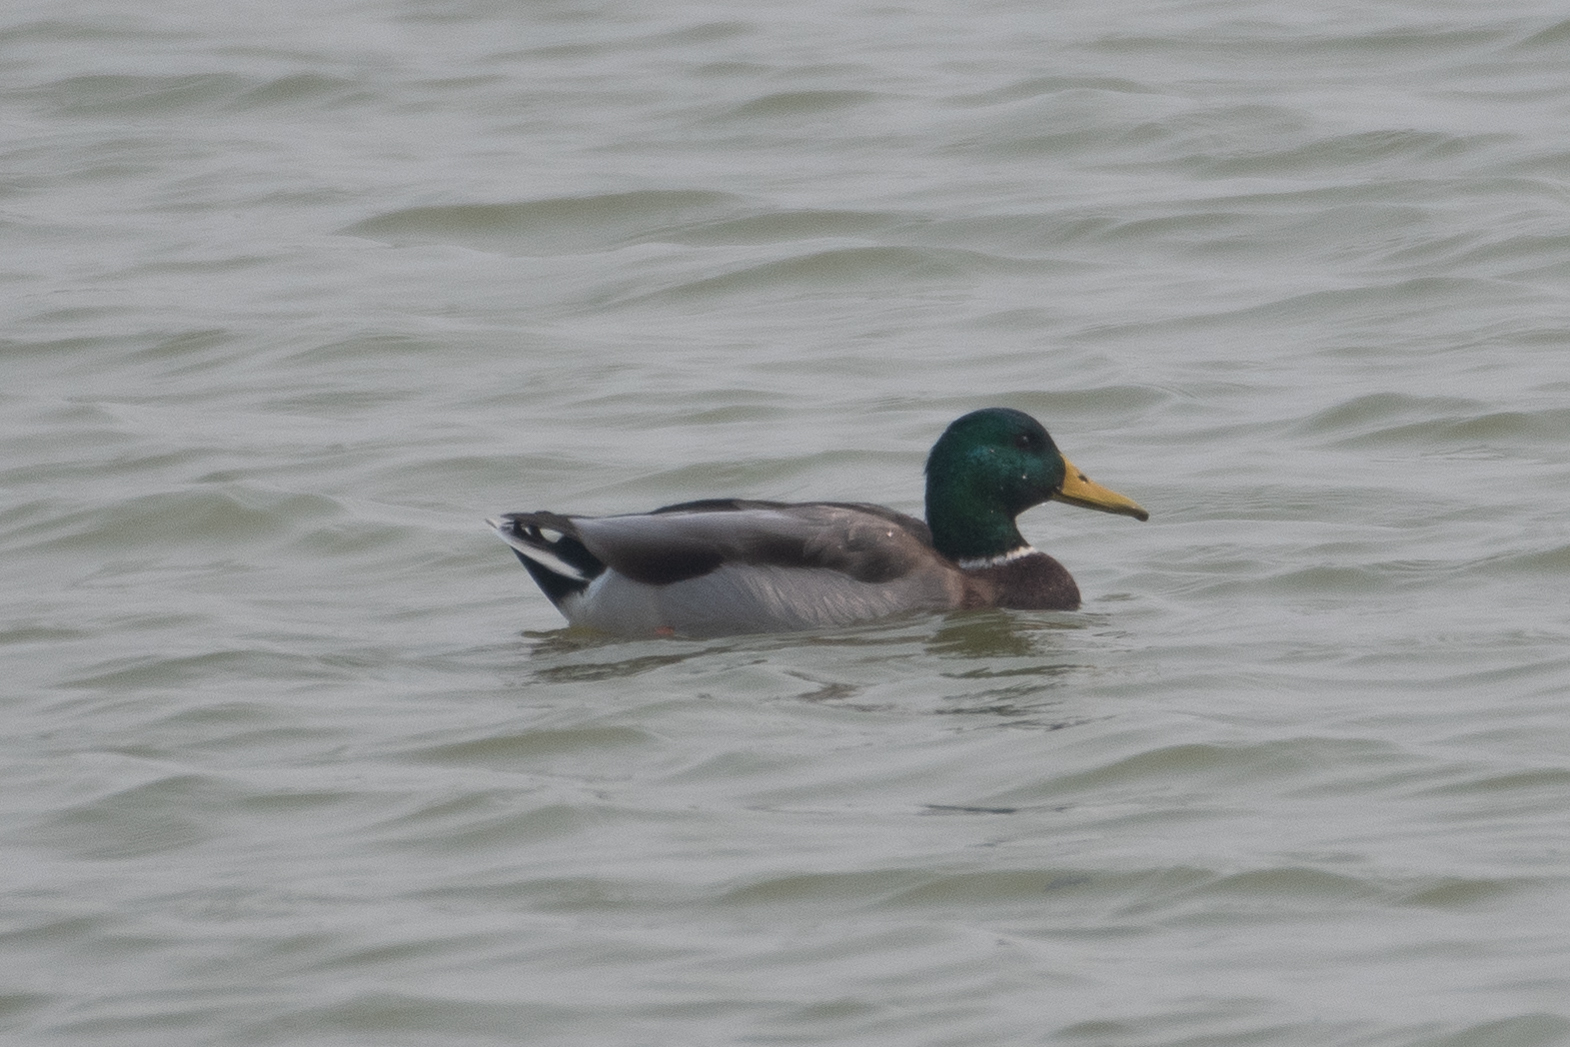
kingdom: Animalia
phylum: Chordata
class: Aves
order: Anseriformes
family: Anatidae
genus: Anas
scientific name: Anas platyrhynchos
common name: Mallard
